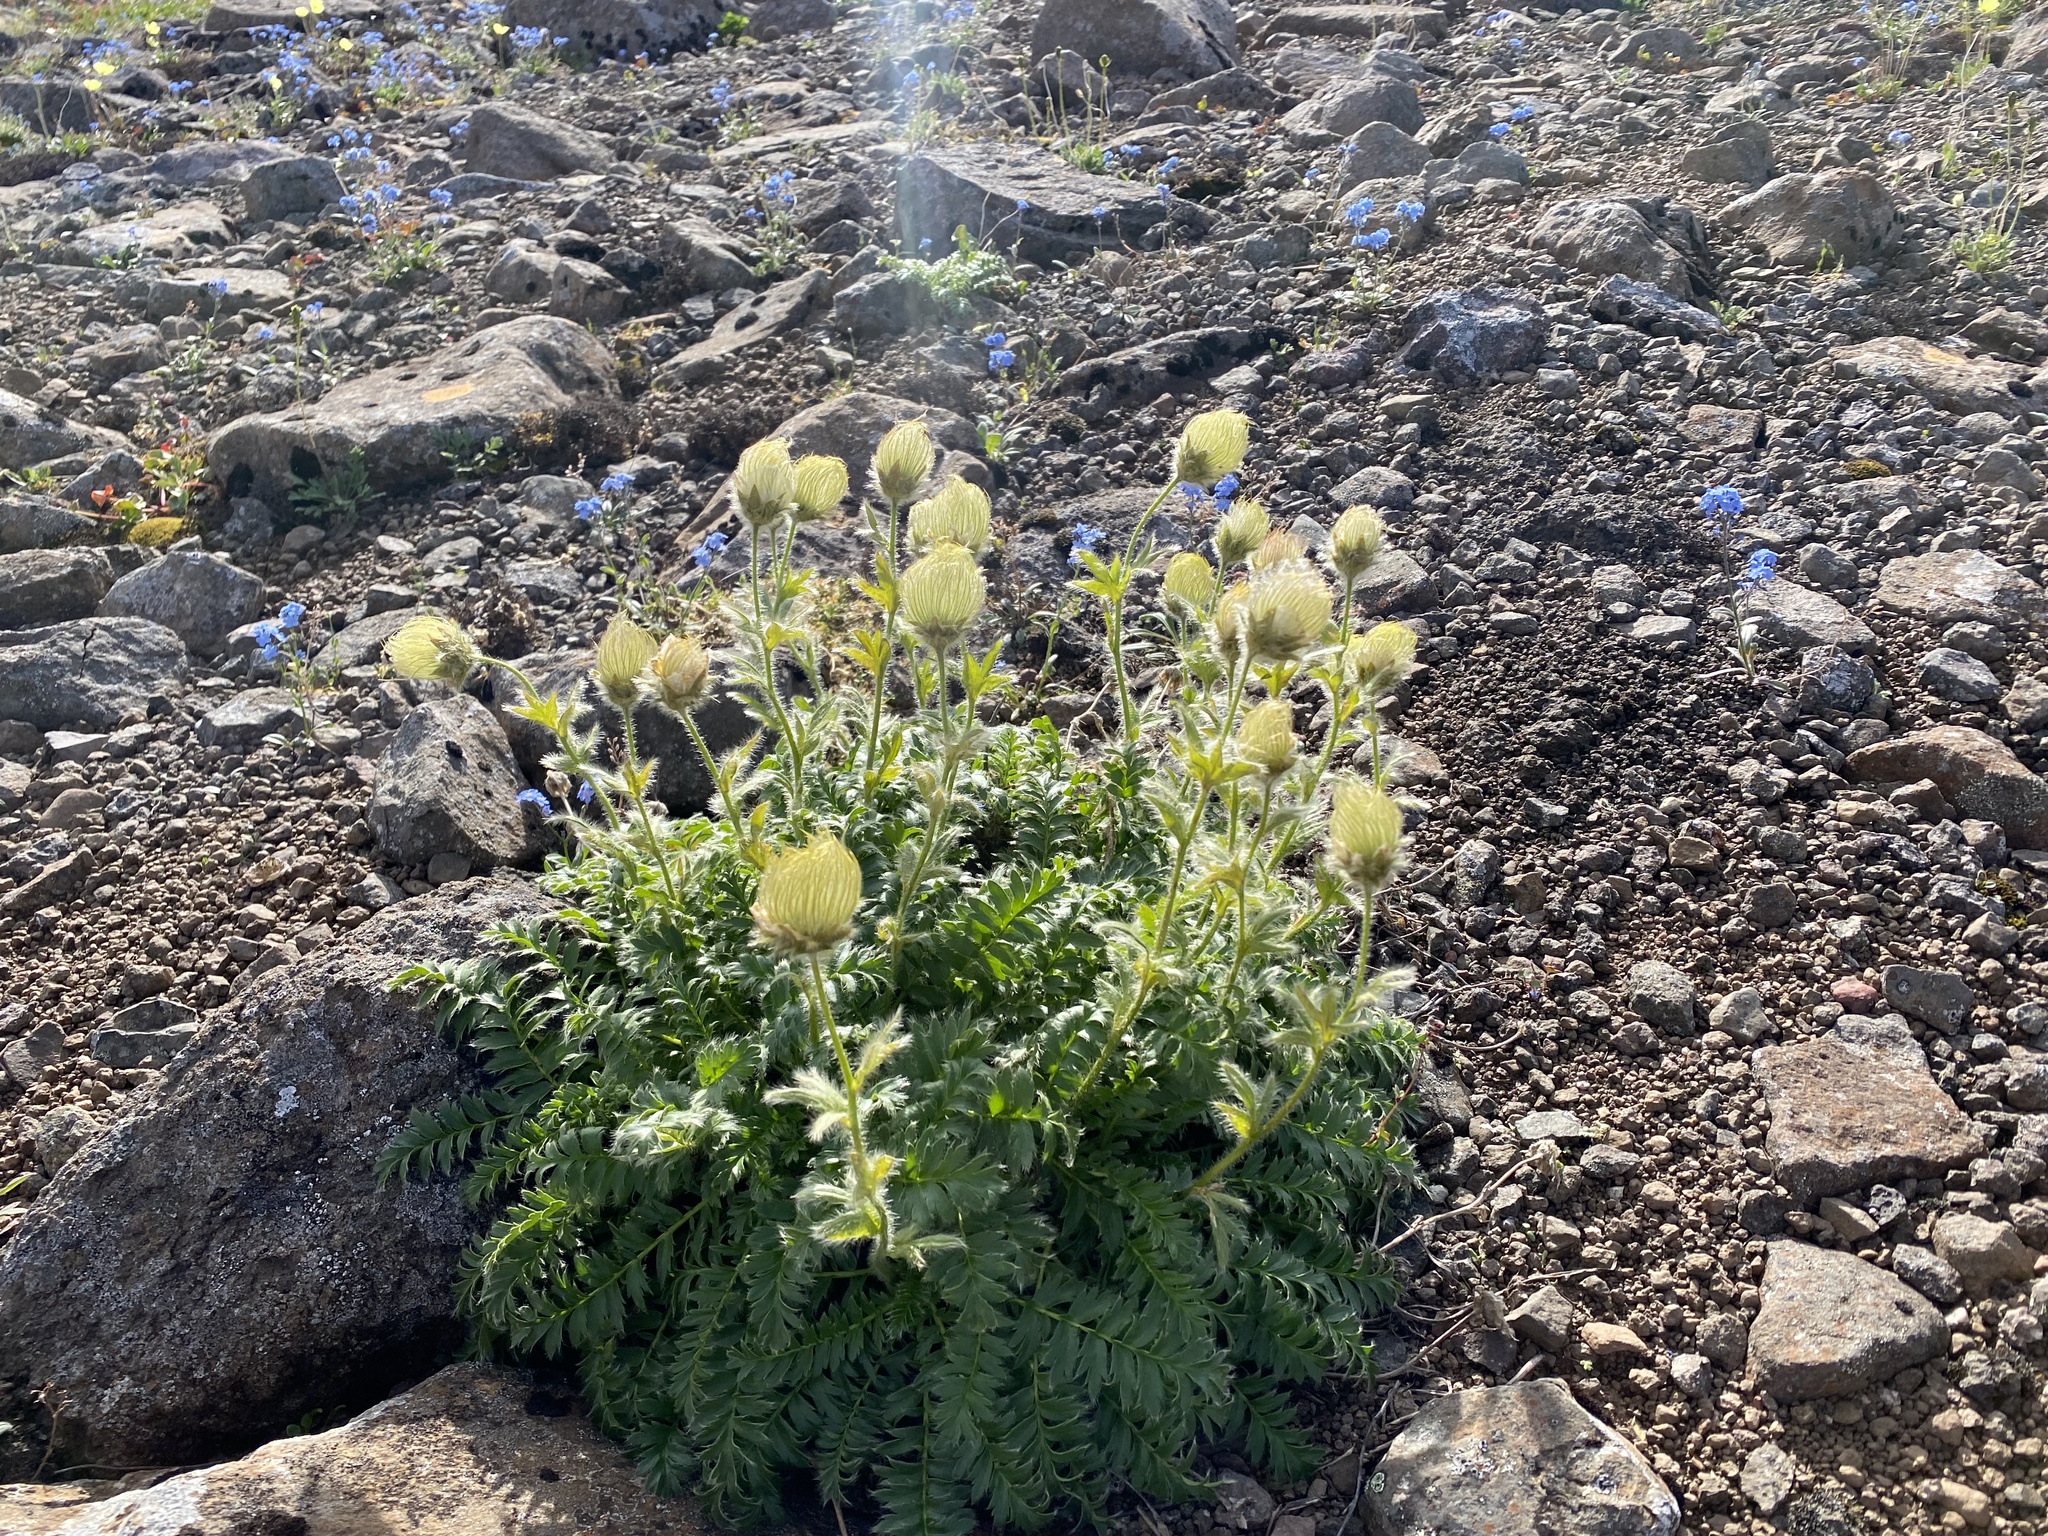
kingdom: Plantae
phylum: Tracheophyta
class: Magnoliopsida
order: Rosales
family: Rosaceae
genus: Geum
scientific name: Geum glaciale
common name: Glacier avens
